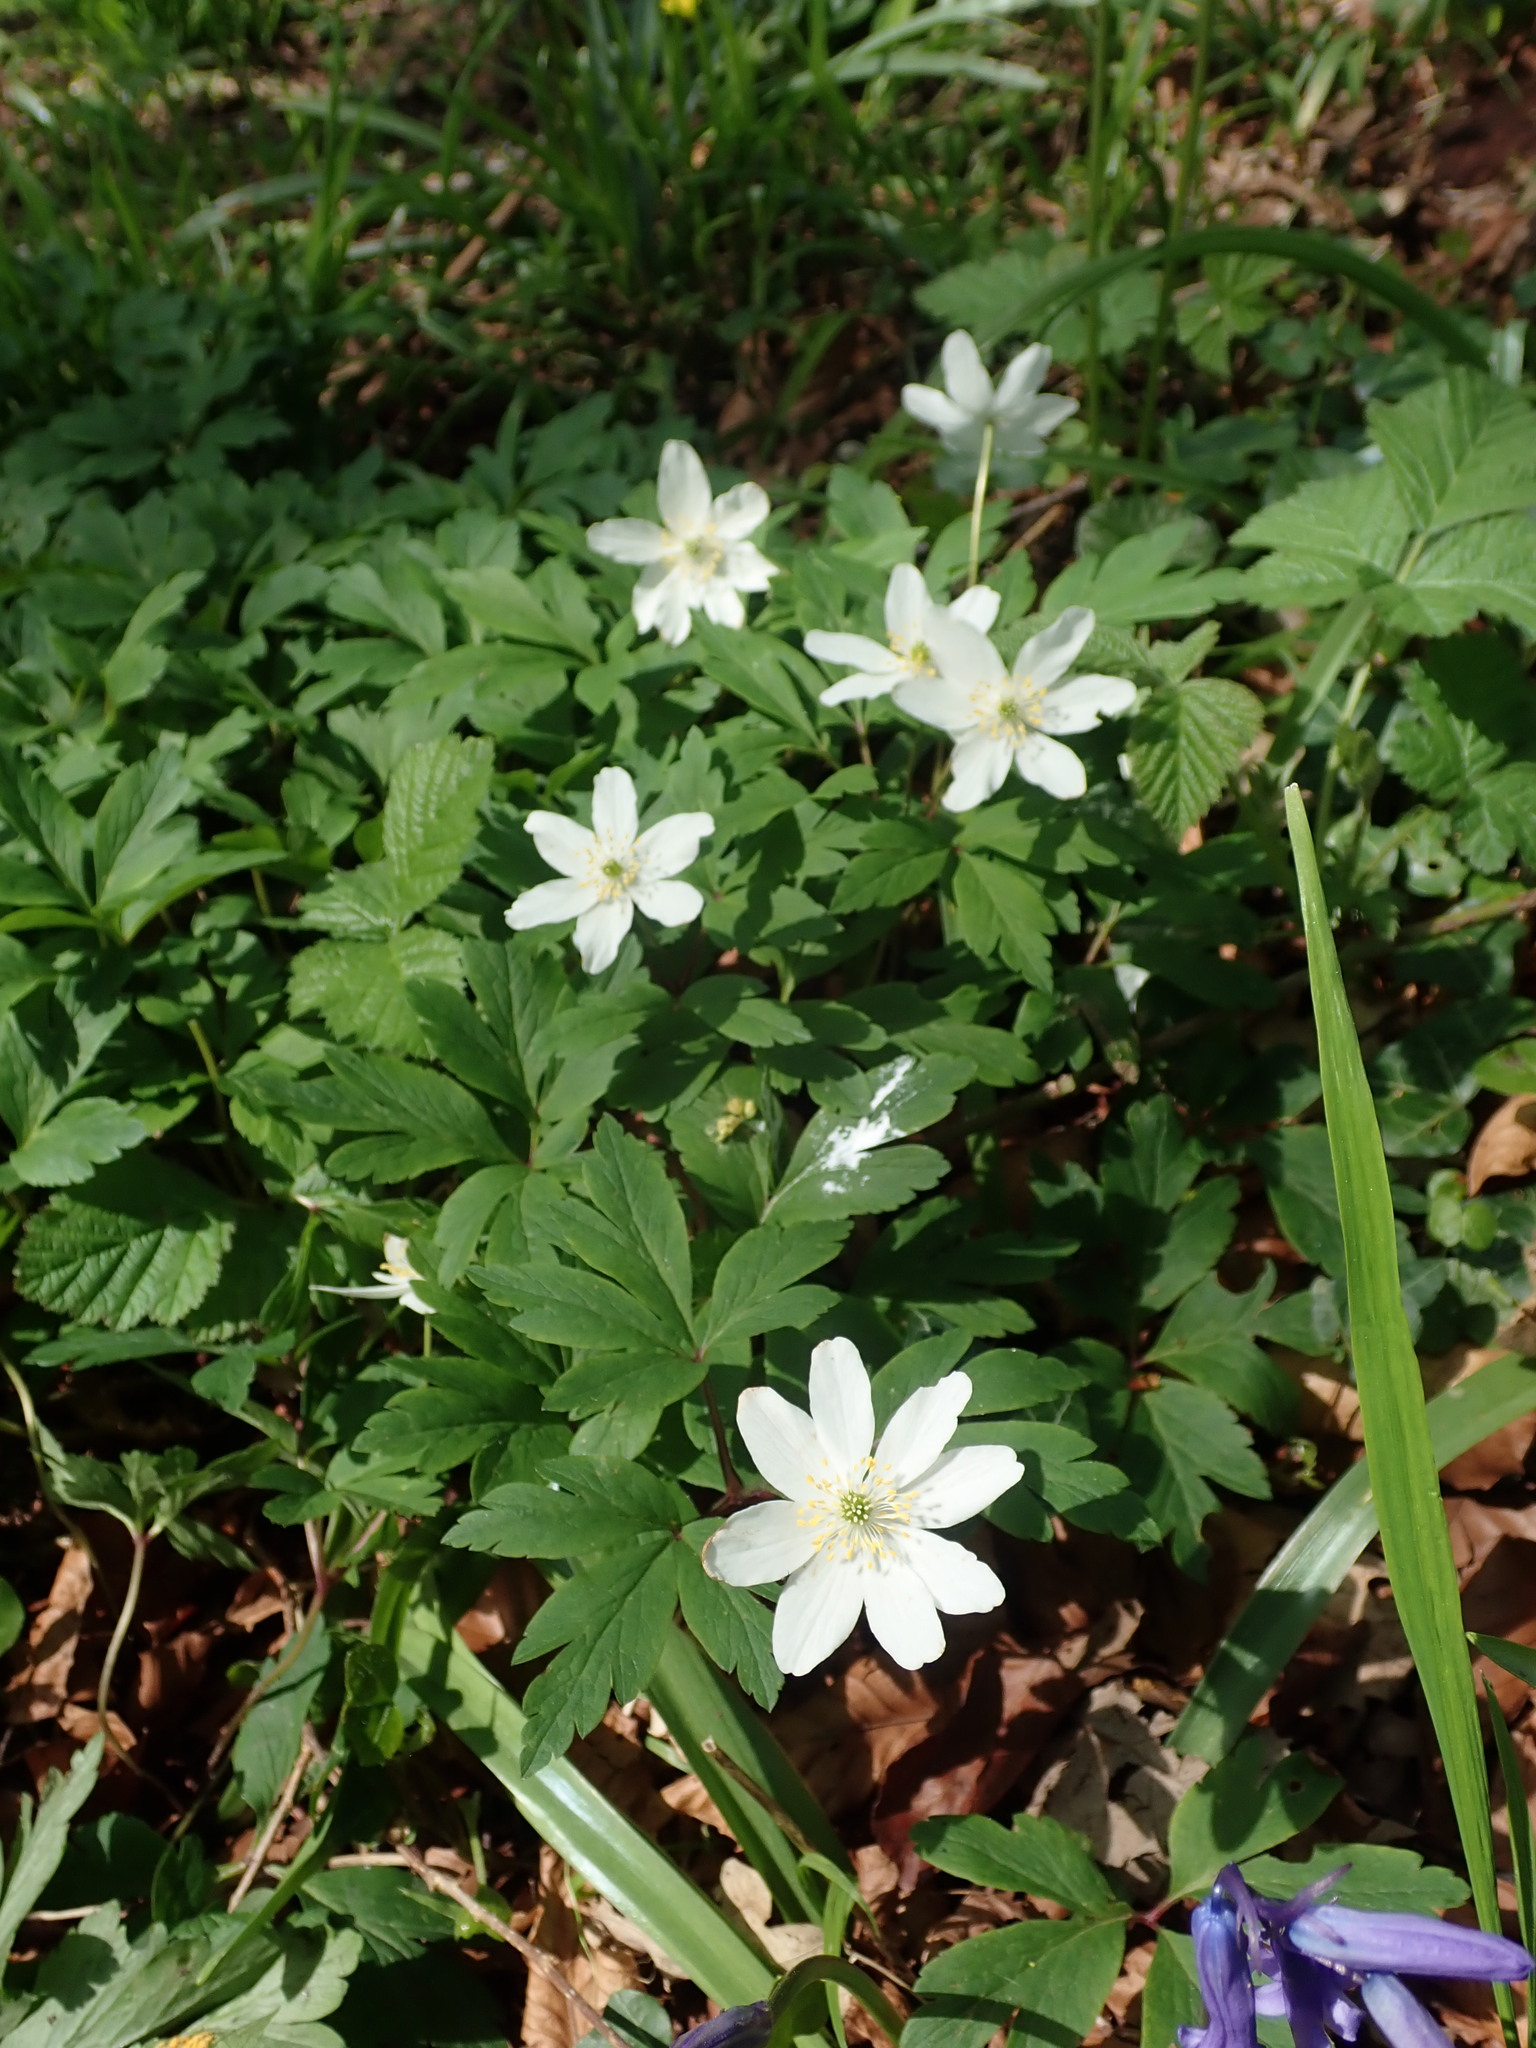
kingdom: Plantae
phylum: Tracheophyta
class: Magnoliopsida
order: Ranunculales
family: Ranunculaceae
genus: Anemone
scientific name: Anemone nemorosa
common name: Wood anemone
